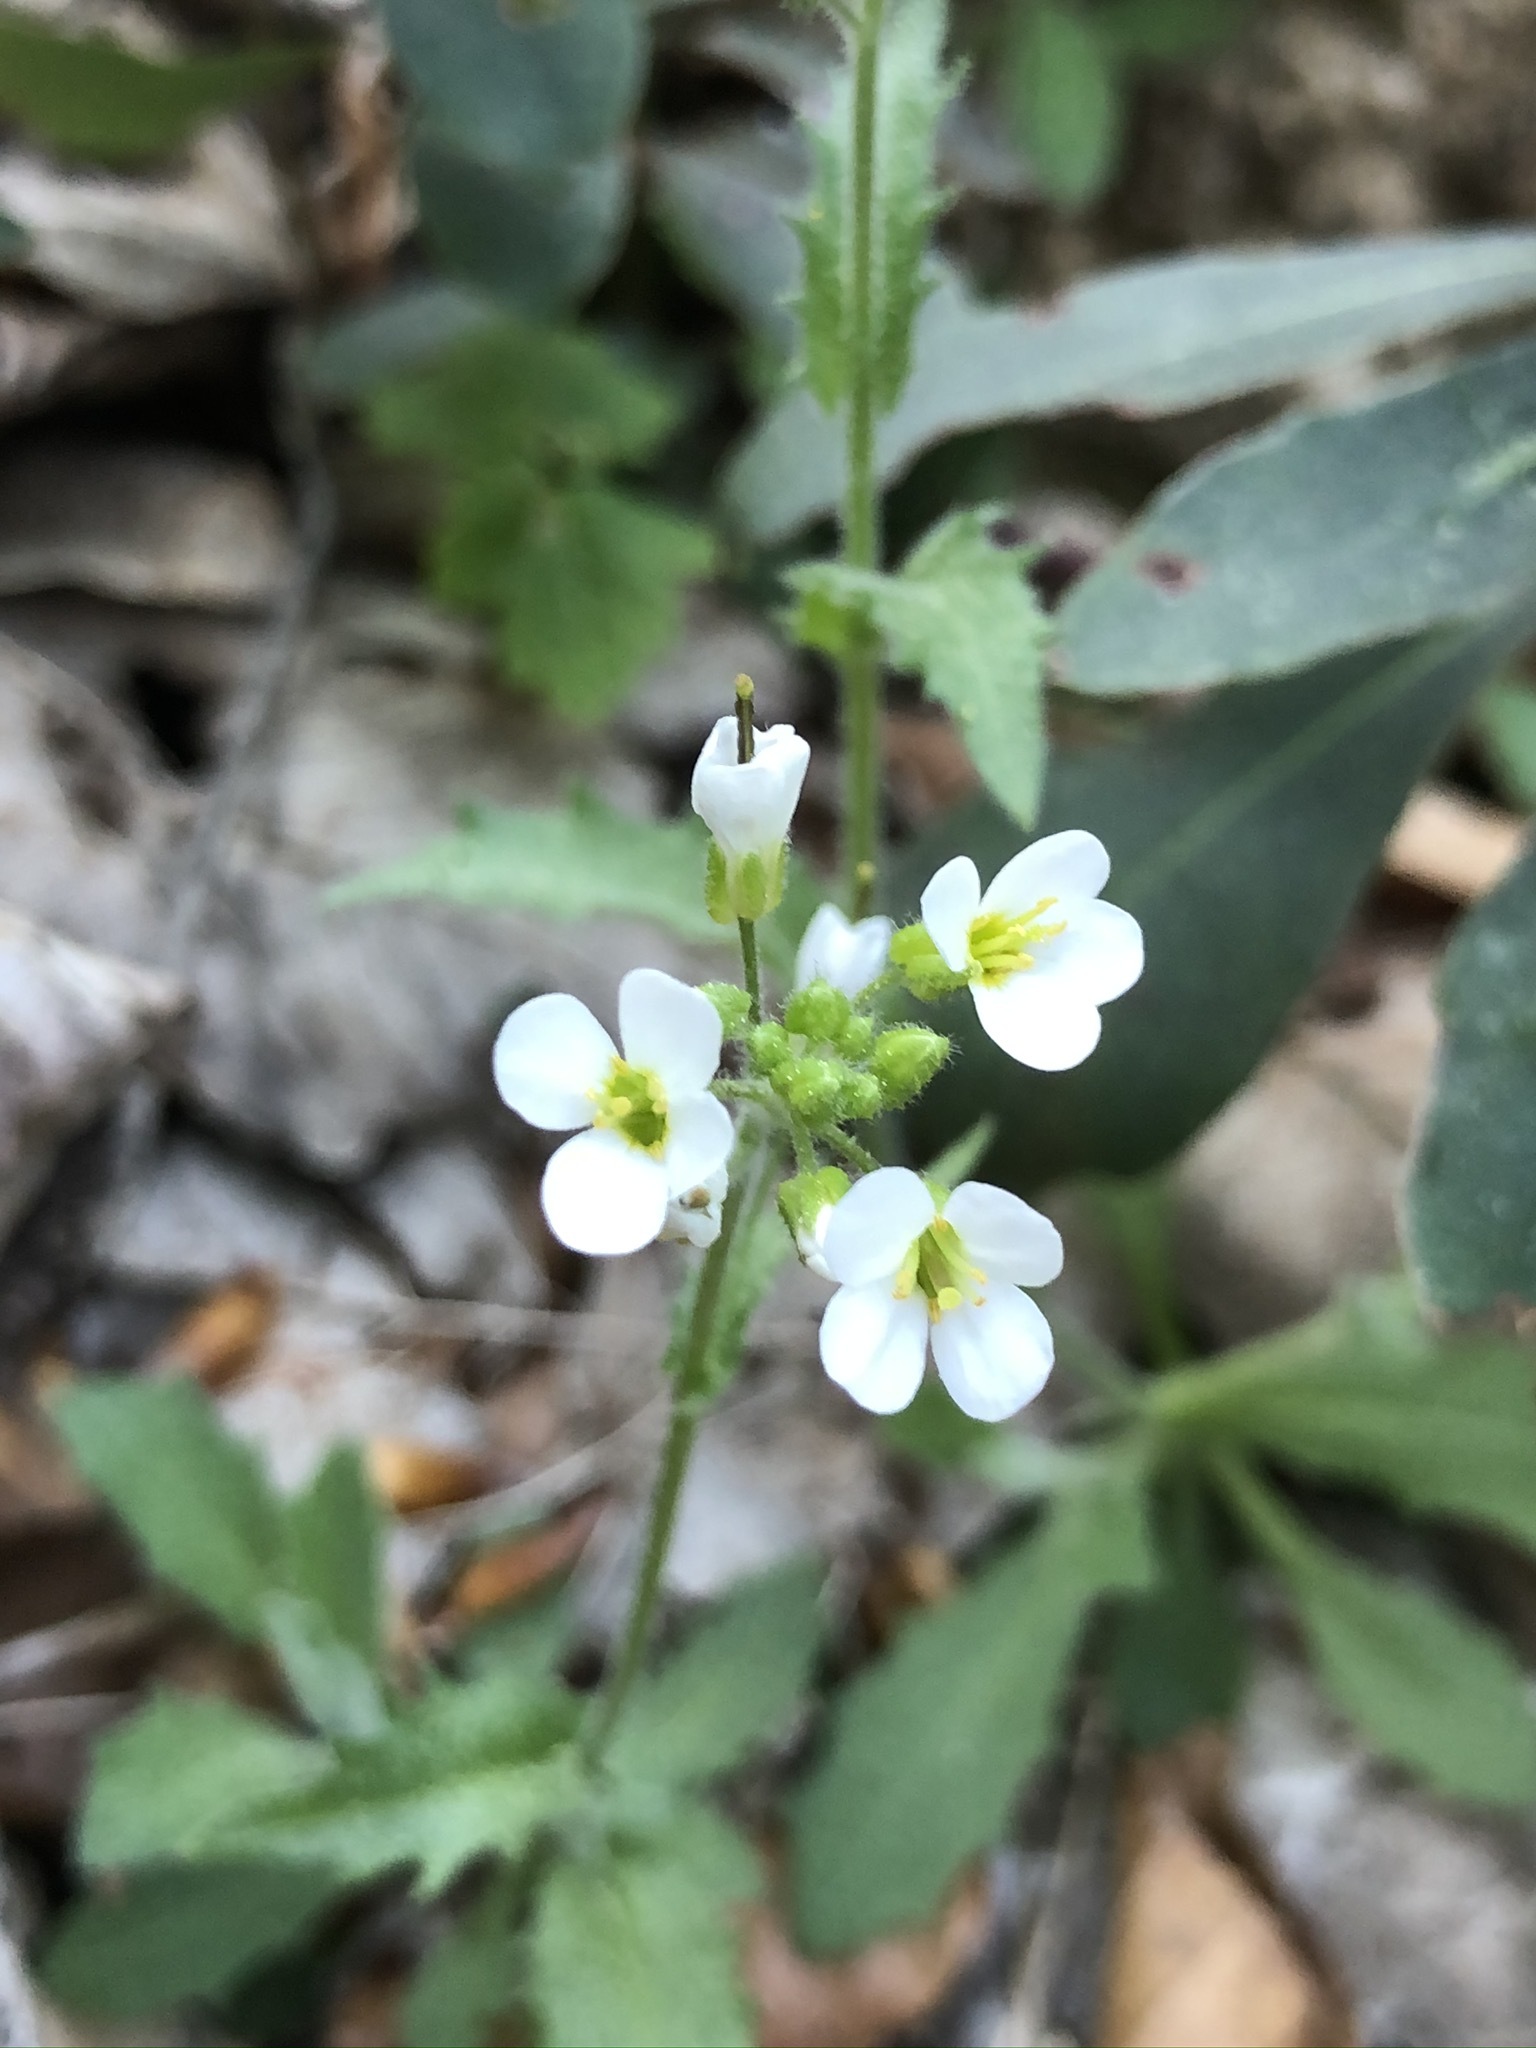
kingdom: Plantae
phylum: Tracheophyta
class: Magnoliopsida
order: Brassicales
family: Brassicaceae
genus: Arabis
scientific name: Arabis alpina
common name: Alpine rock-cress
